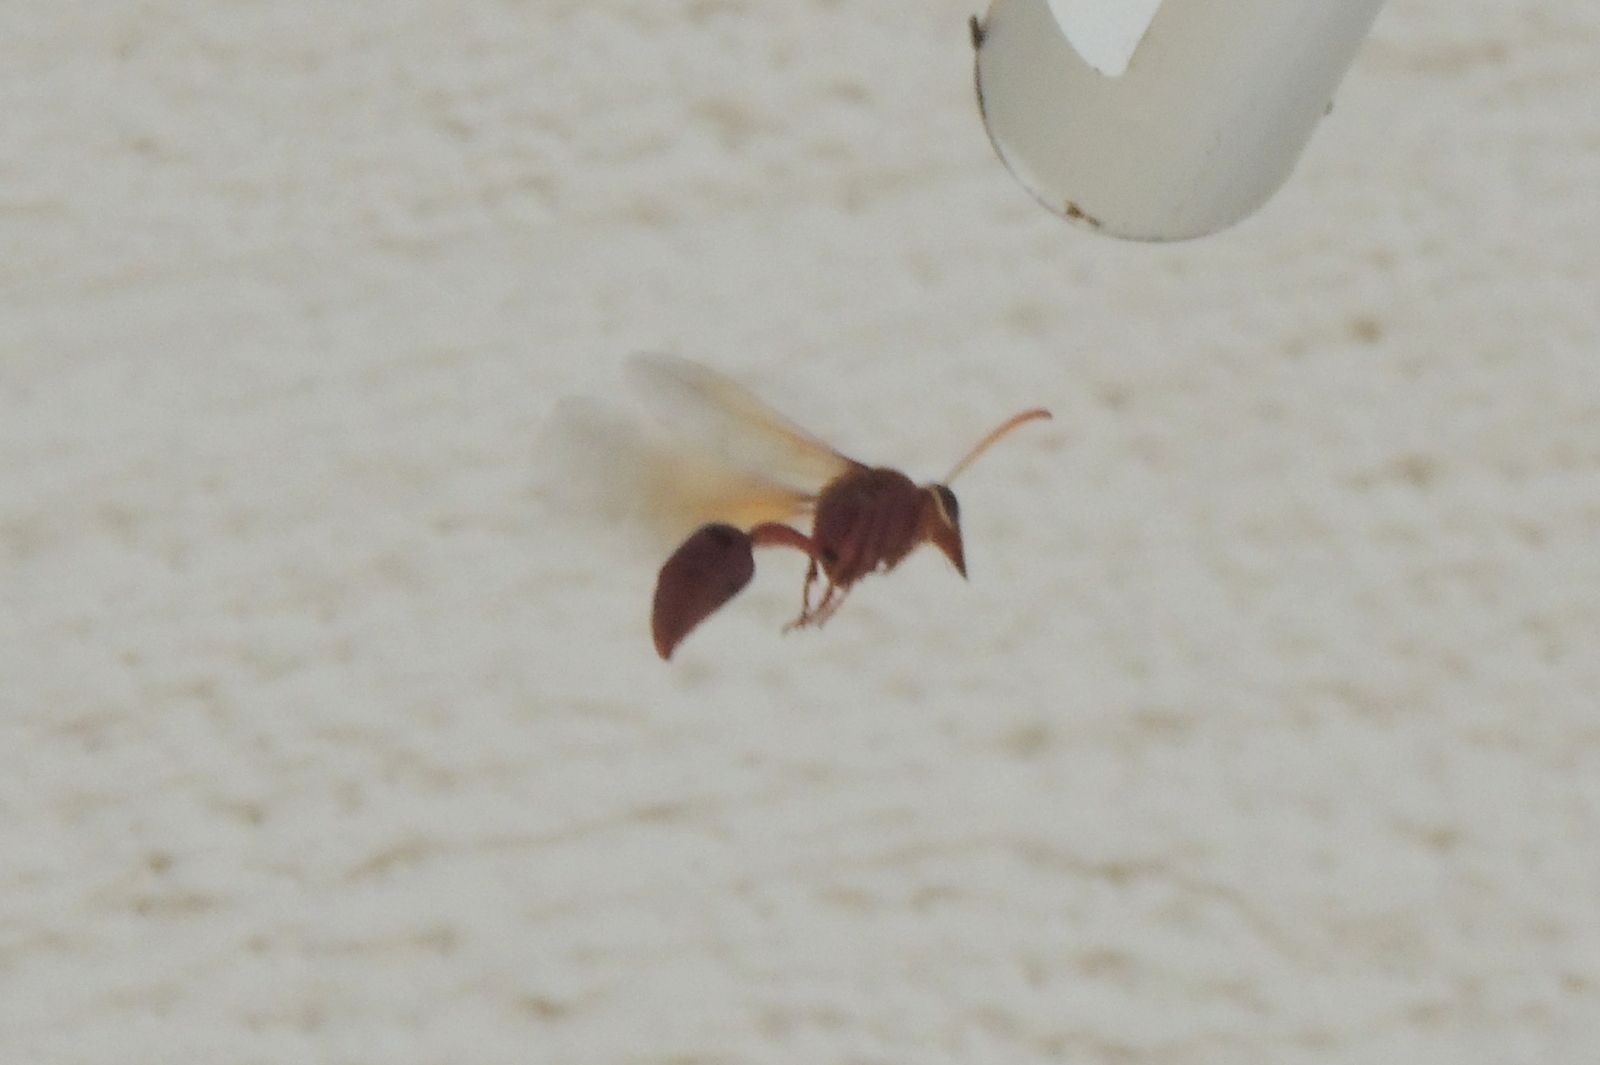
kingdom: Animalia
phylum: Arthropoda
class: Insecta
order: Hymenoptera
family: Eumenidae
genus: Delta
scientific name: Delta conoideum
